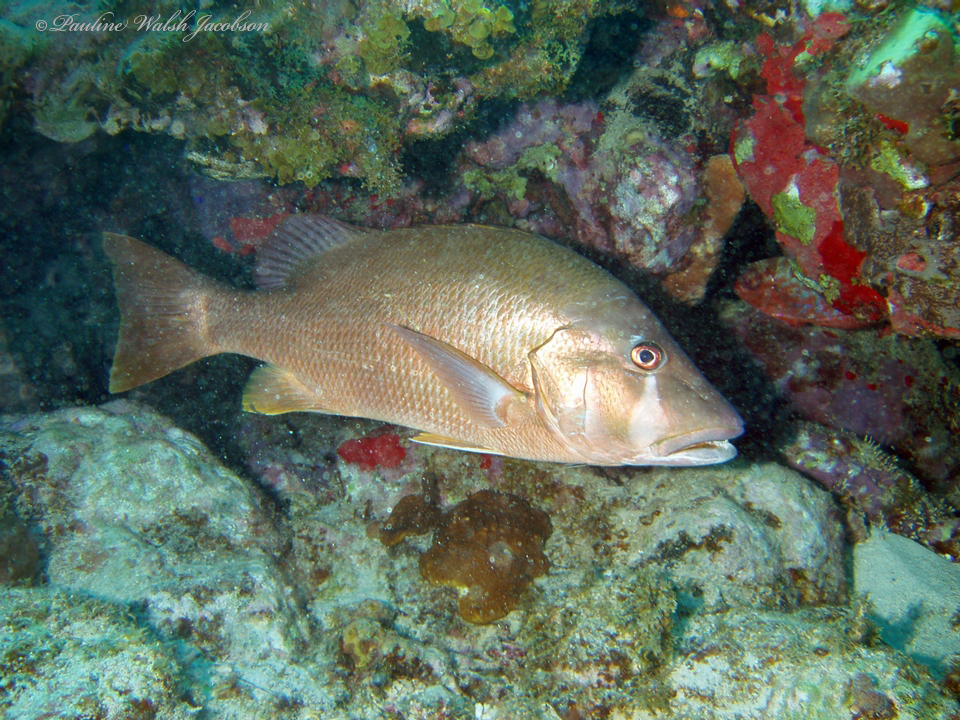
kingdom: Animalia
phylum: Chordata
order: Perciformes
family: Lutjanidae
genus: Lutjanus
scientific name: Lutjanus jocu
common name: Dog snapper
